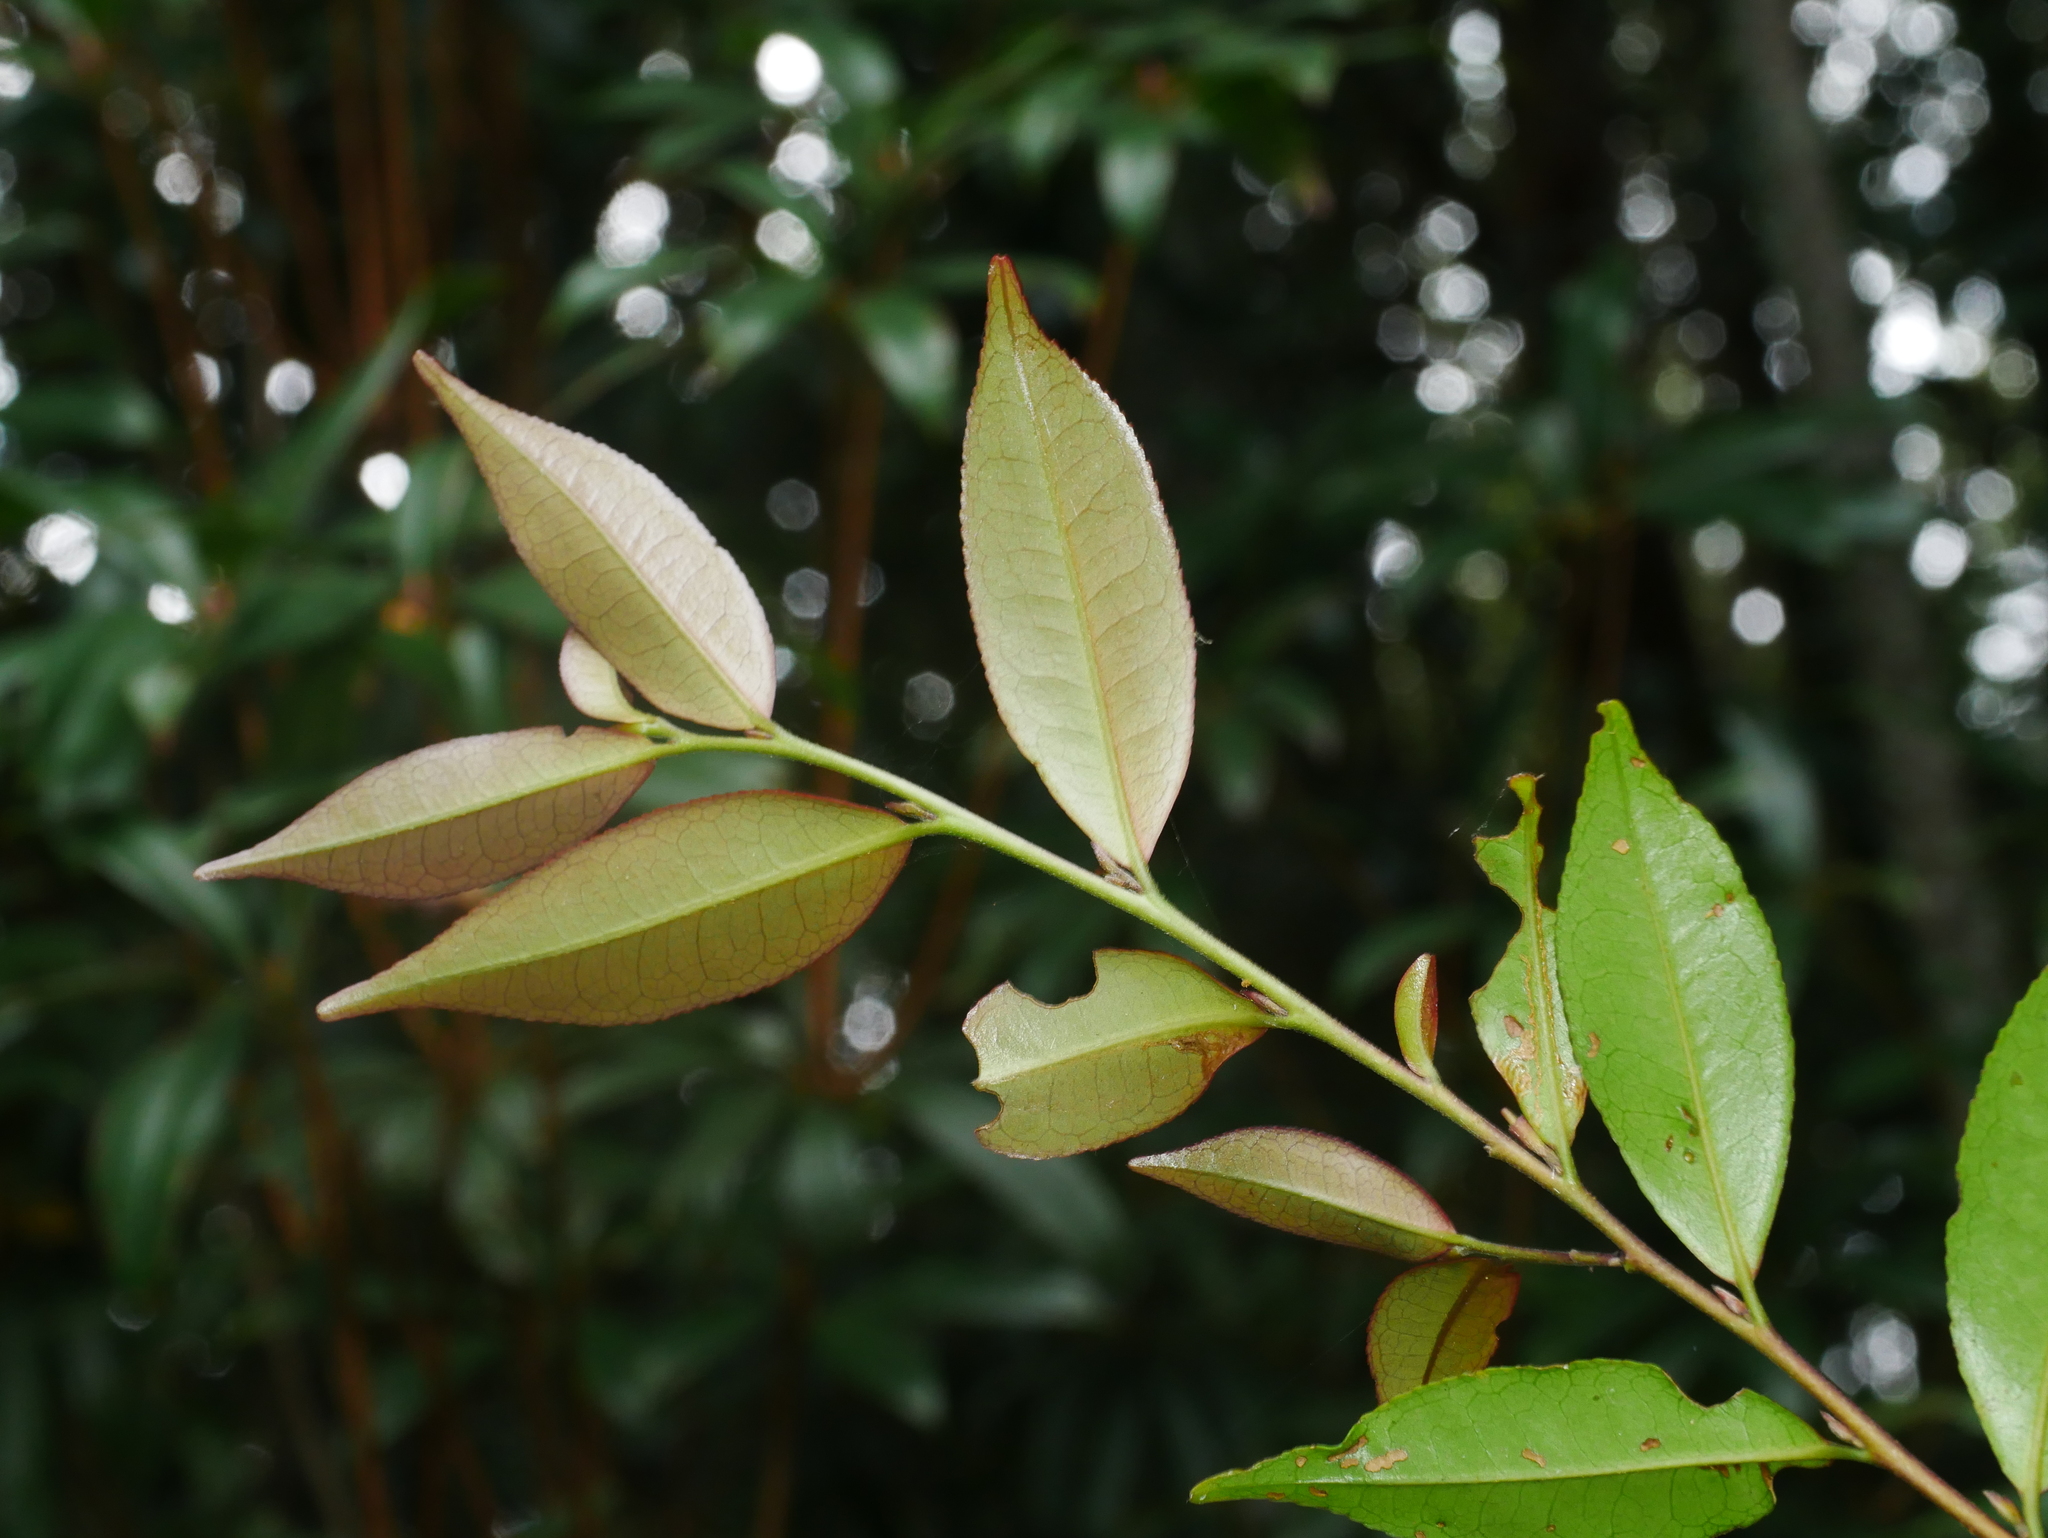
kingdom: Plantae
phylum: Tracheophyta
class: Magnoliopsida
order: Ericales
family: Pentaphylacaceae
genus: Eurya
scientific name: Eurya loquaiana
